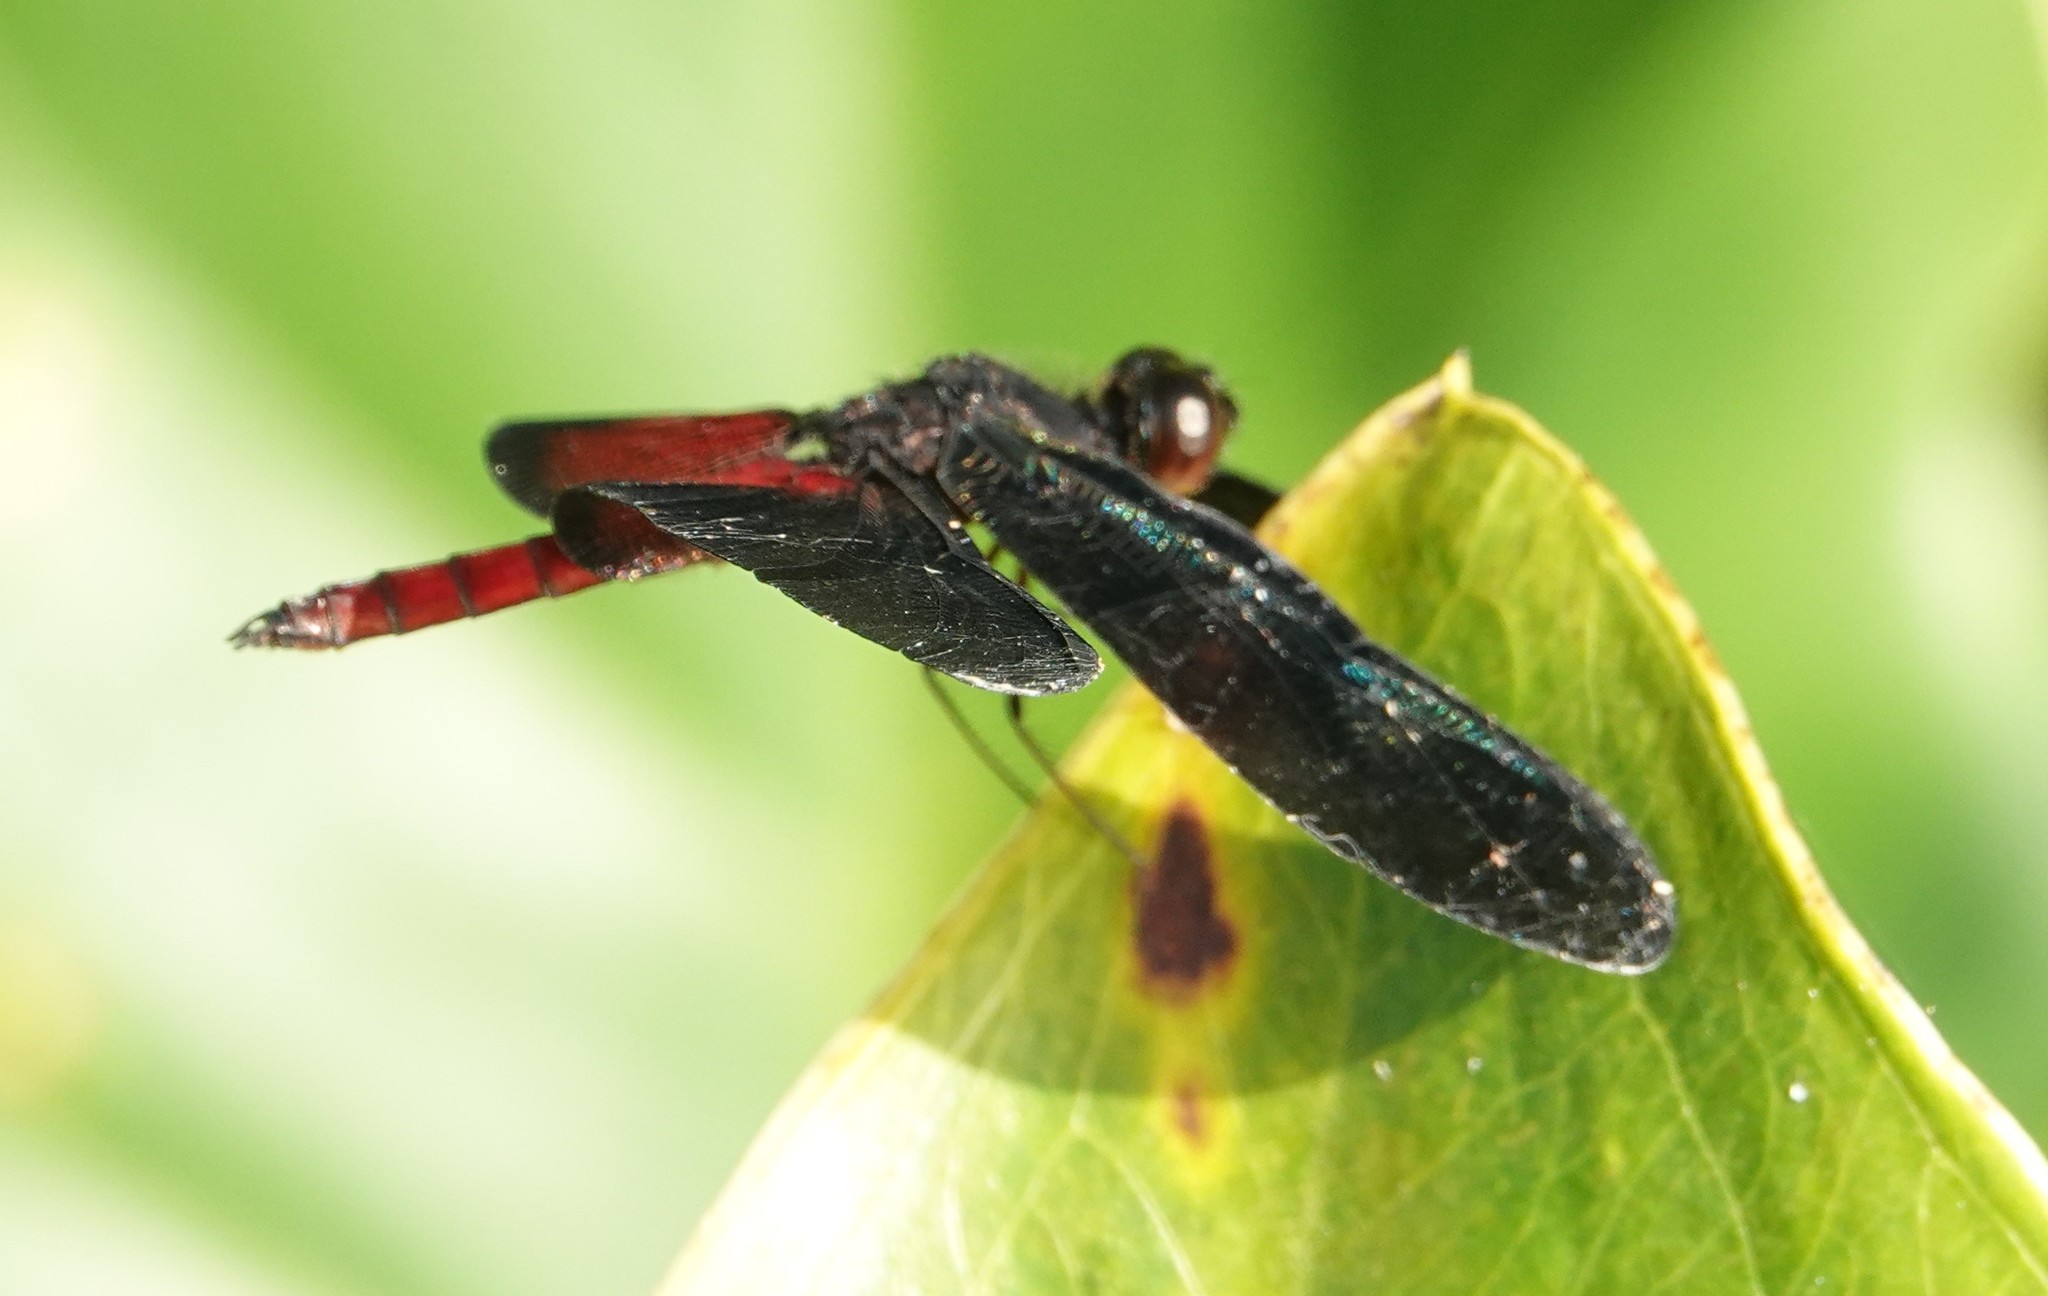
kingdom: Animalia
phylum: Arthropoda
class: Insecta
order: Odonata
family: Libellulidae
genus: Diastatops
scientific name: Diastatops pullata
